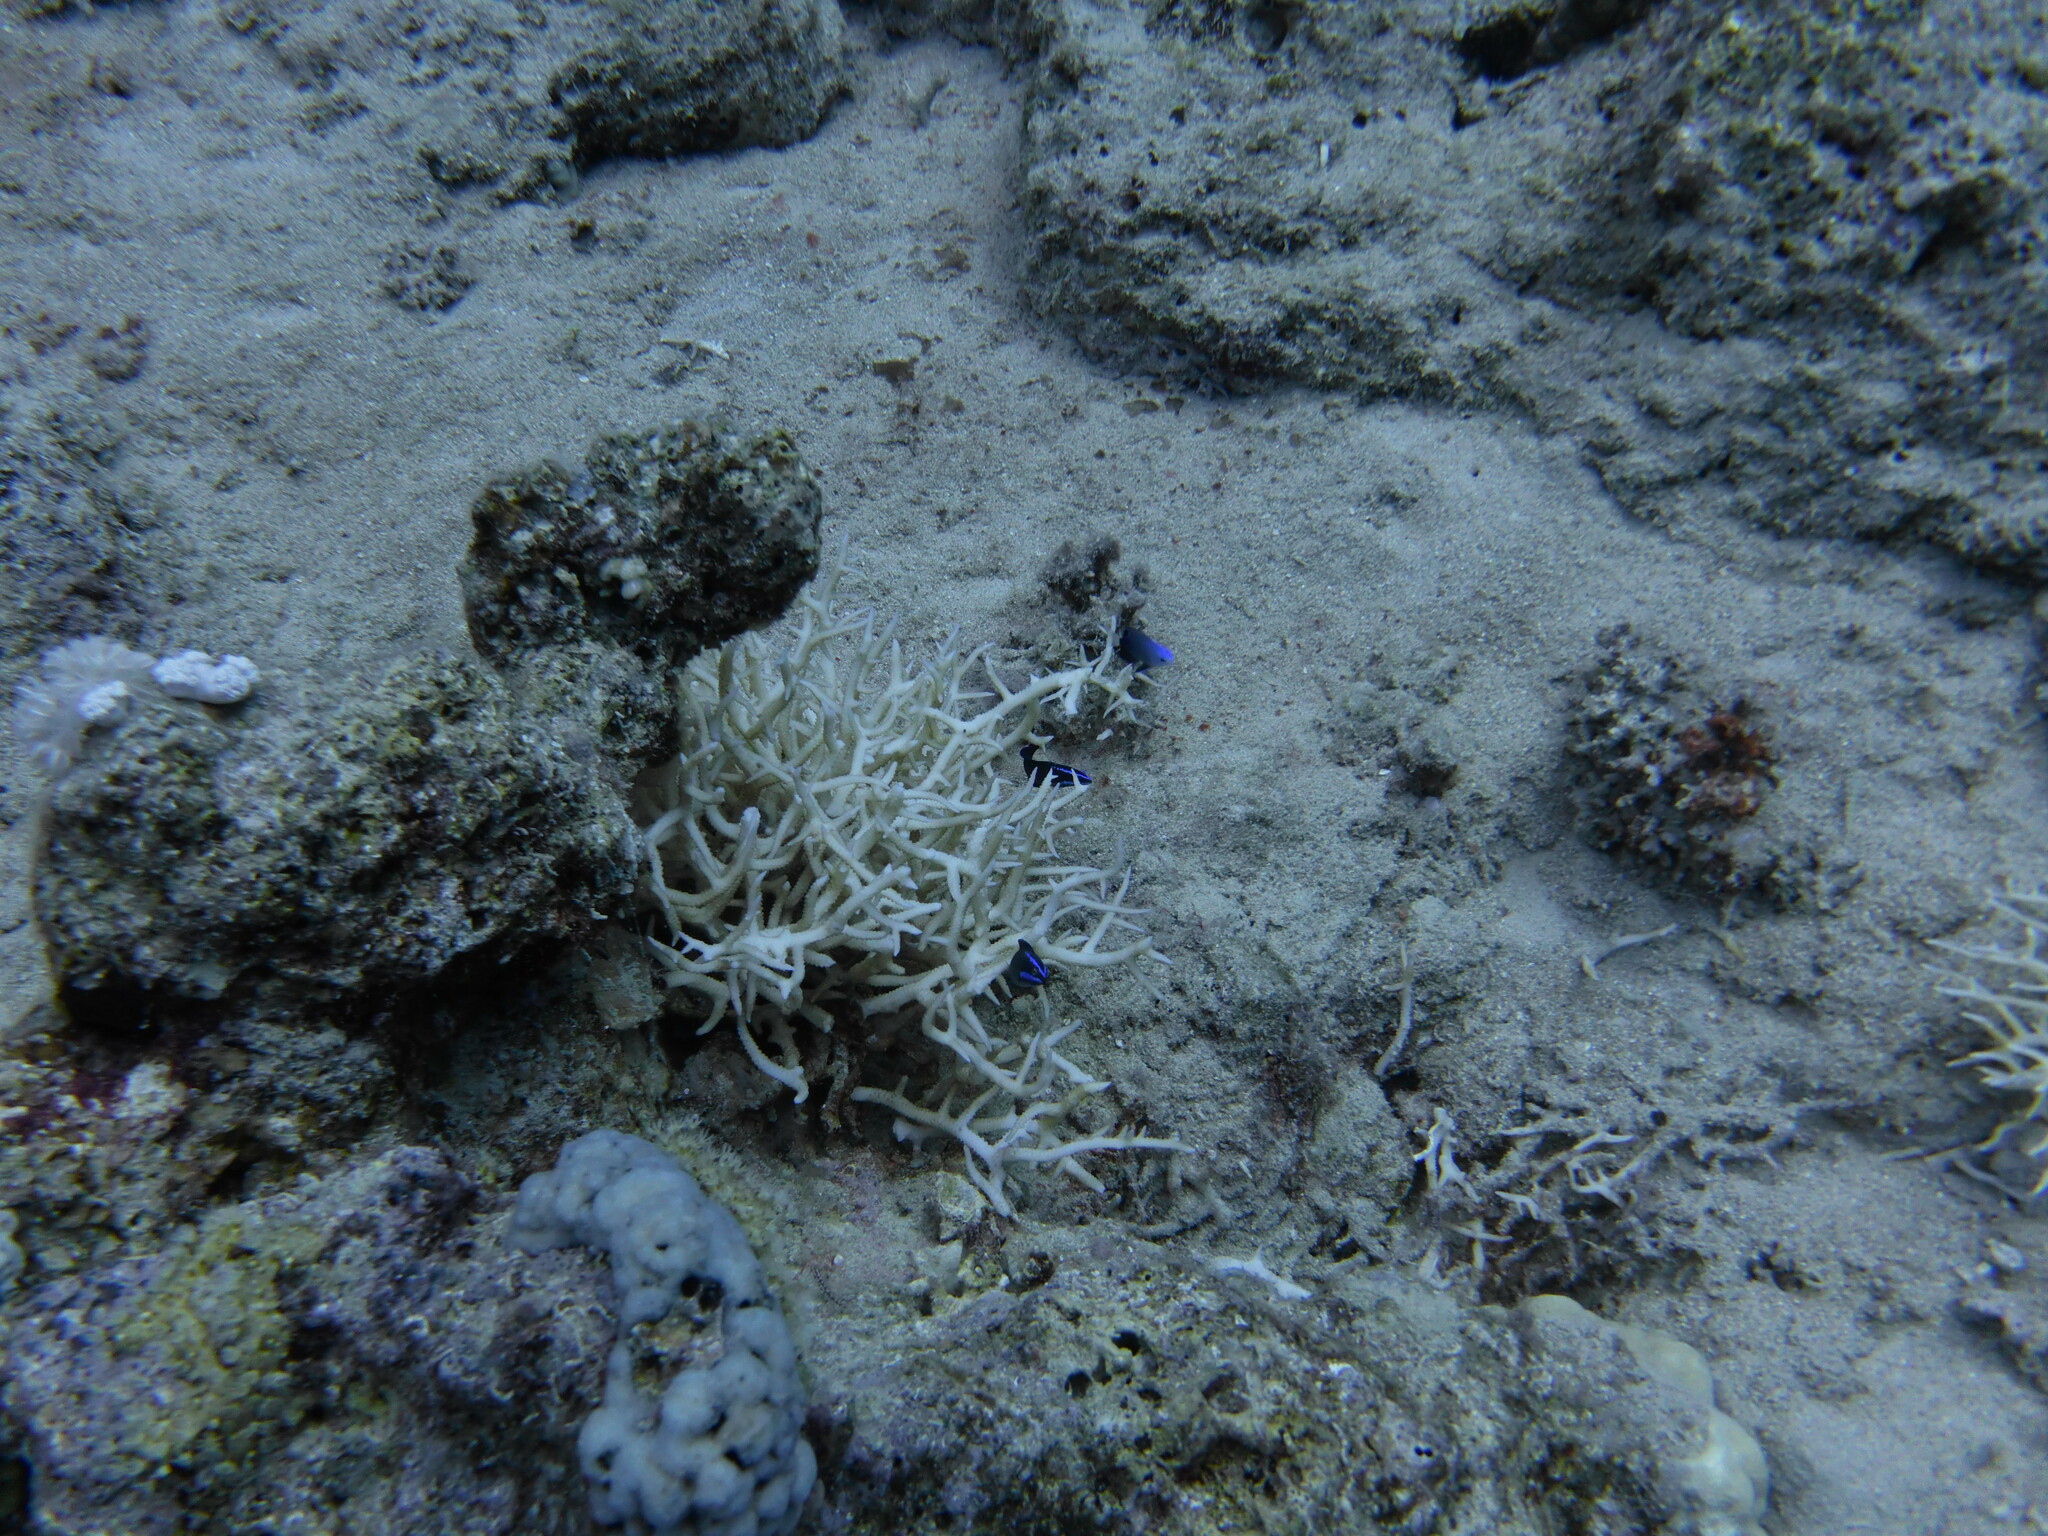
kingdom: Animalia
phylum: Cnidaria
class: Anthozoa
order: Scleractinia
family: Pocilloporidae
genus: Seriatopora
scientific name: Seriatopora hystrix
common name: Bush coral
